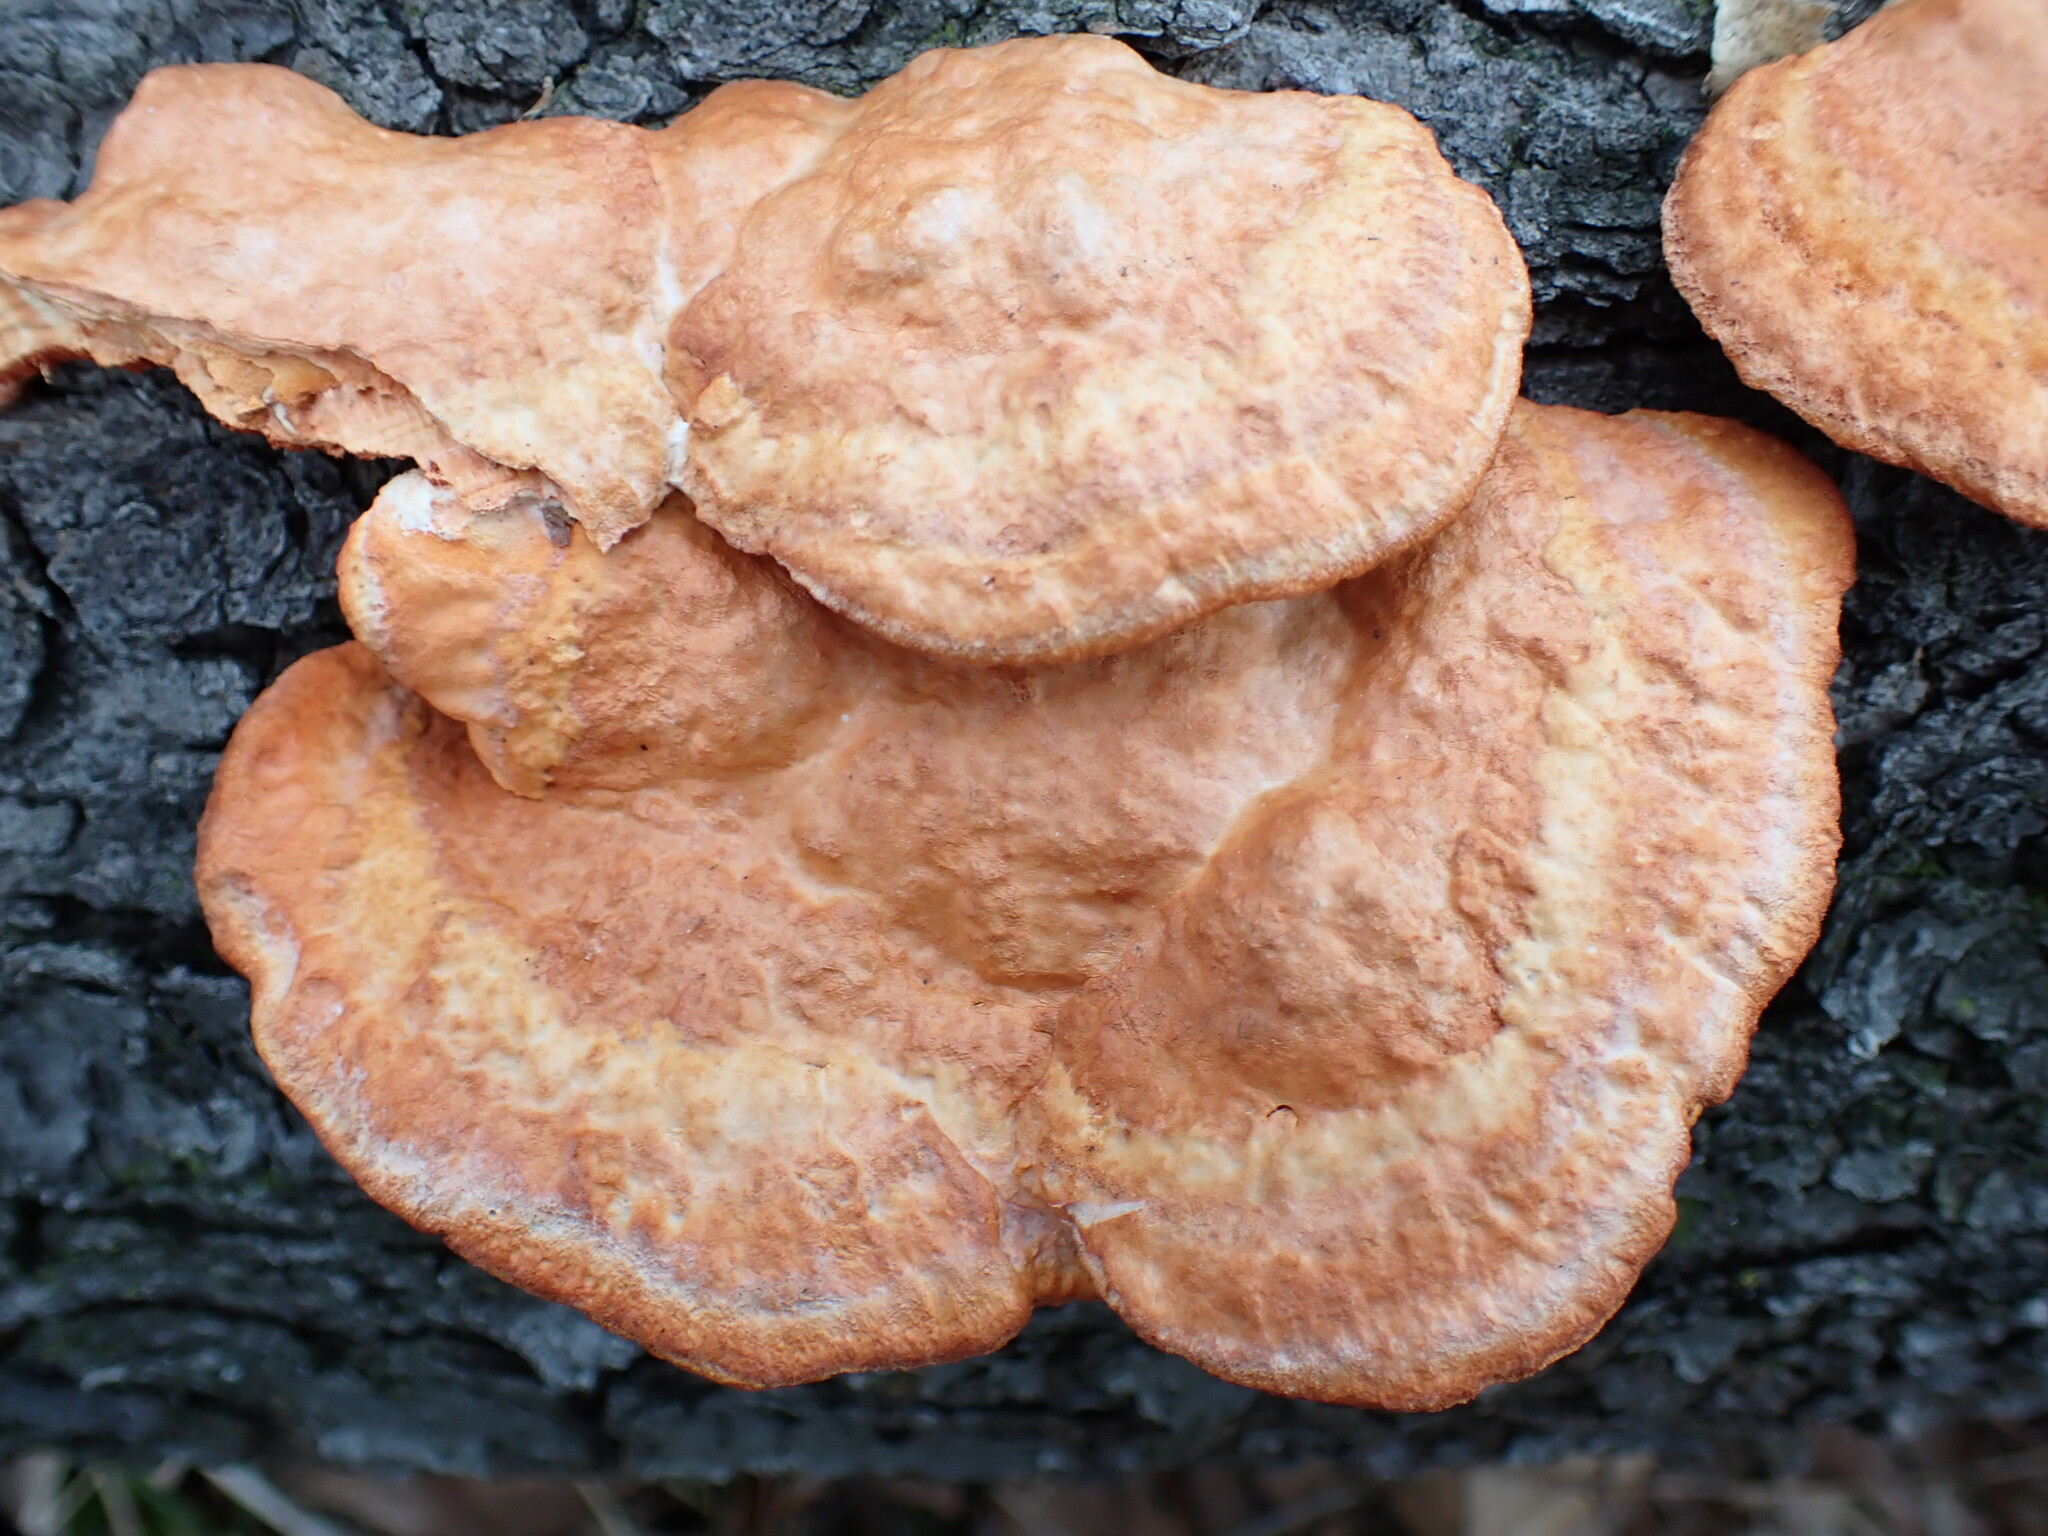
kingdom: Fungi
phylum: Basidiomycota
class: Agaricomycetes
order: Polyporales
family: Polyporaceae
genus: Trametes
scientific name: Trametes cinnabarina
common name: Northern cinnabar polypore
